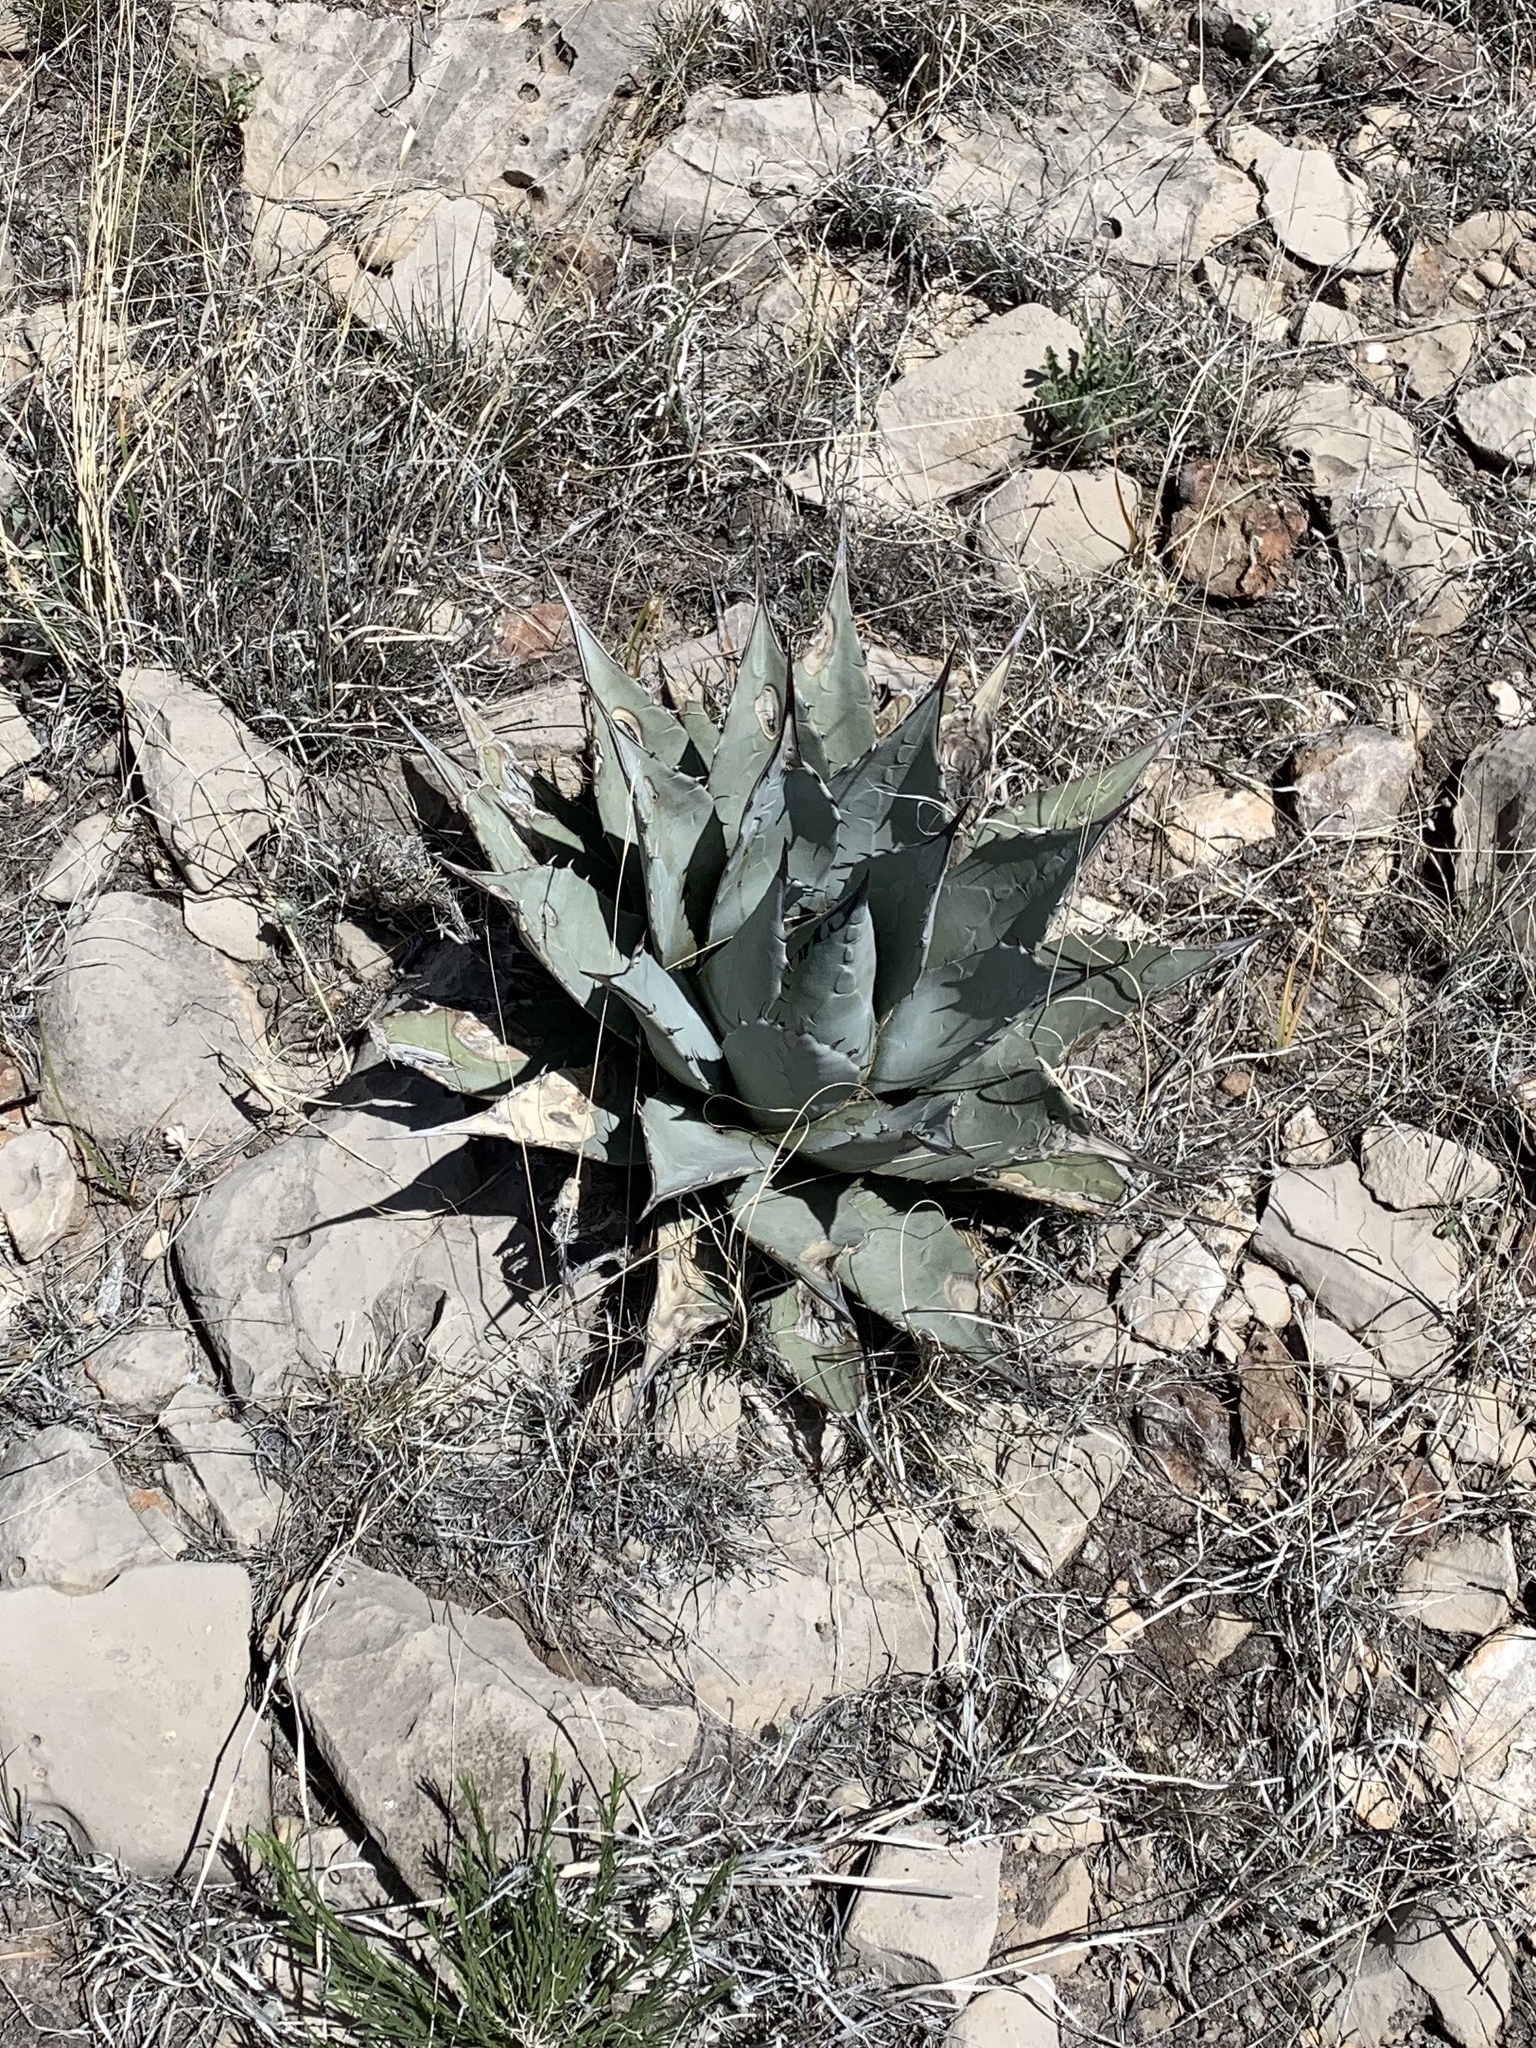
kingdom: Plantae
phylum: Tracheophyta
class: Liliopsida
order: Asparagales
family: Asparagaceae
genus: Agave
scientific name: Agave parryi
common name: Parry's agave
